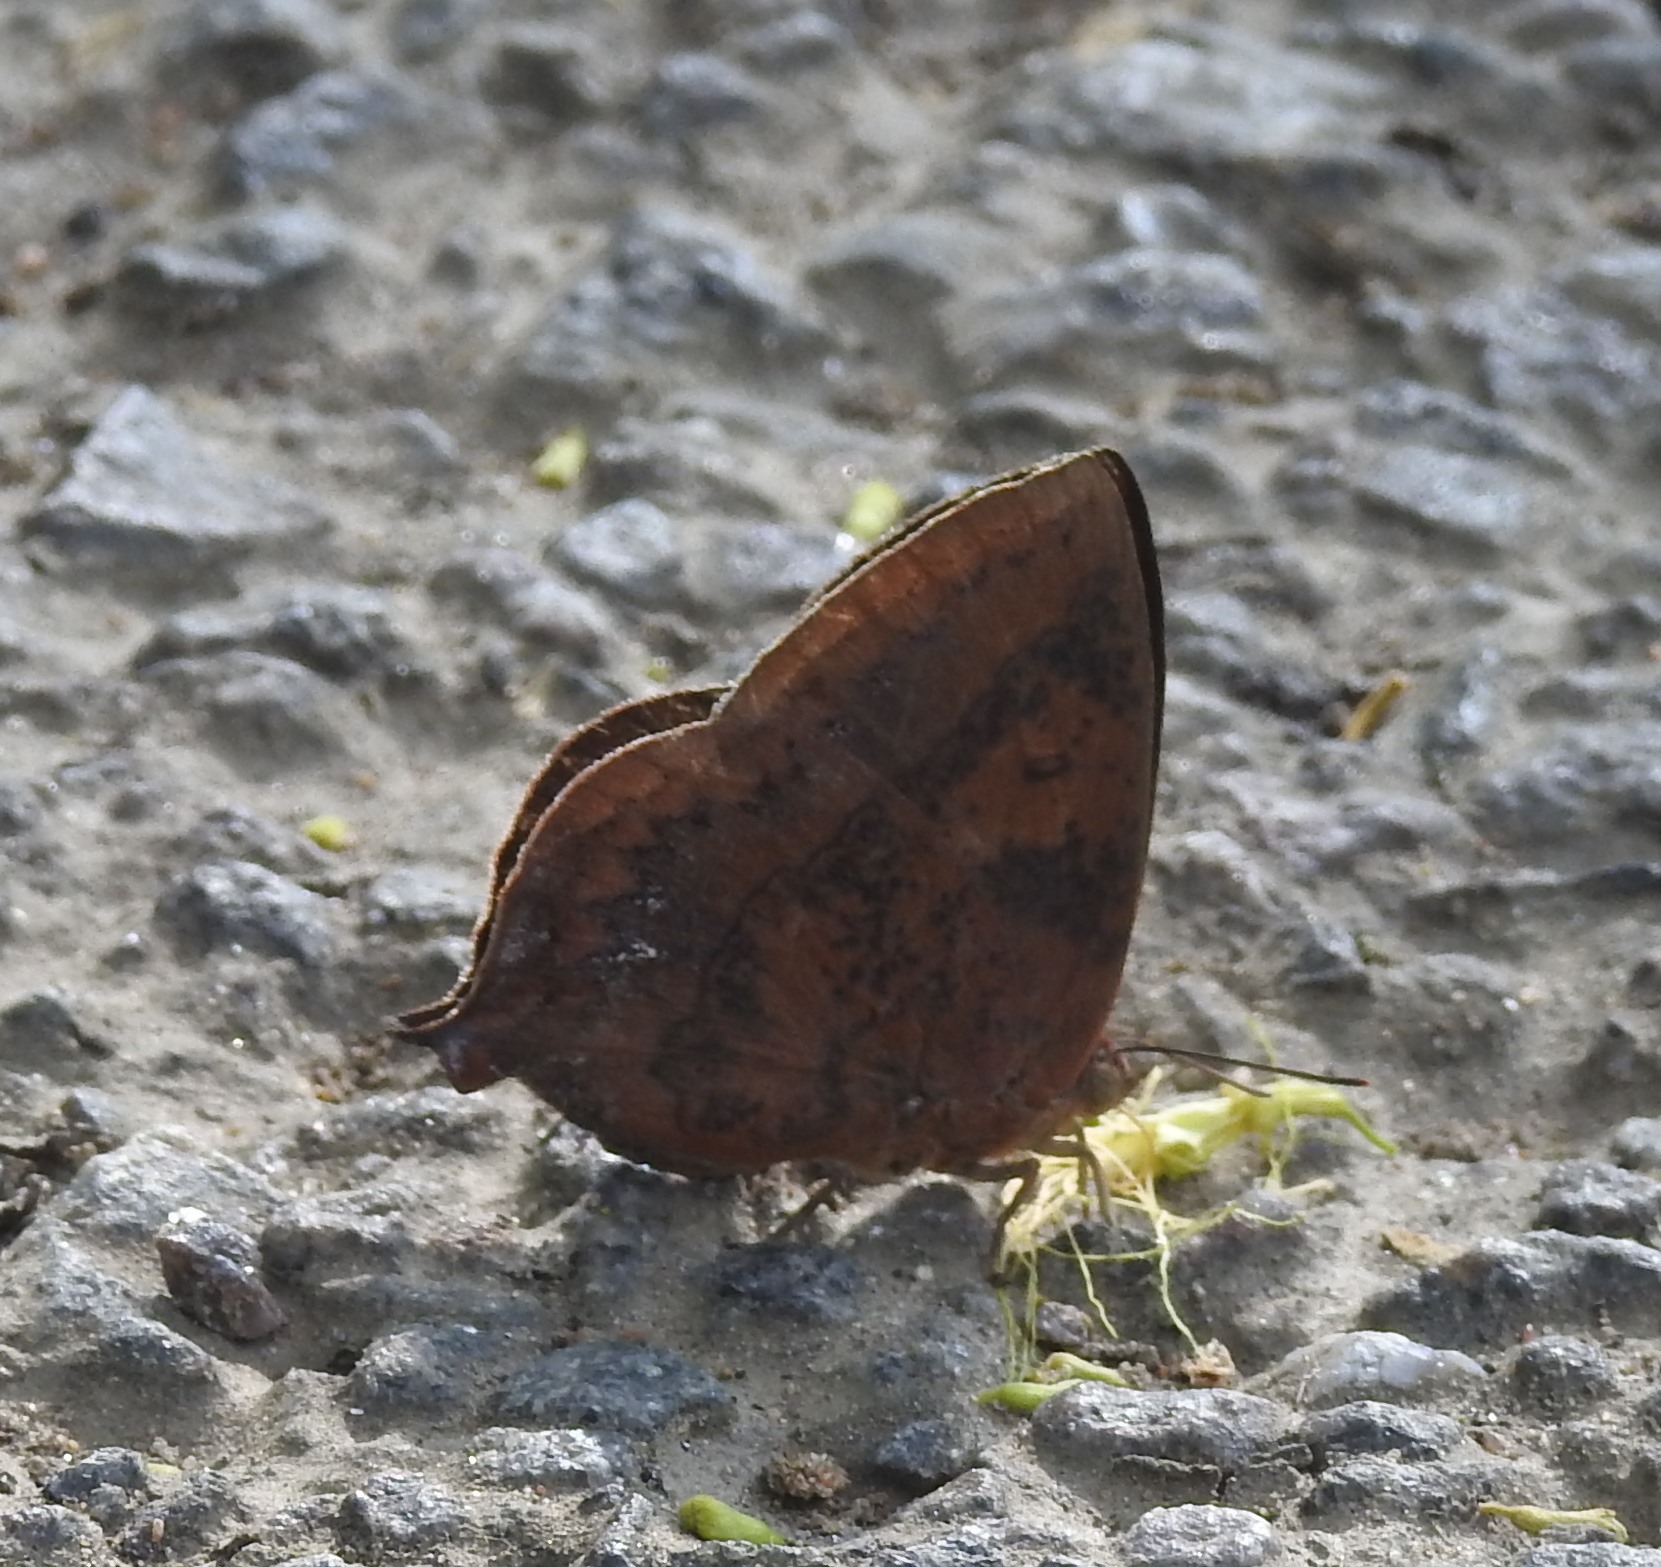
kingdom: Animalia
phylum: Arthropoda
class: Insecta
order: Lepidoptera
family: Lycaenidae
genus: Amblypodia
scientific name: Amblypodia anita
